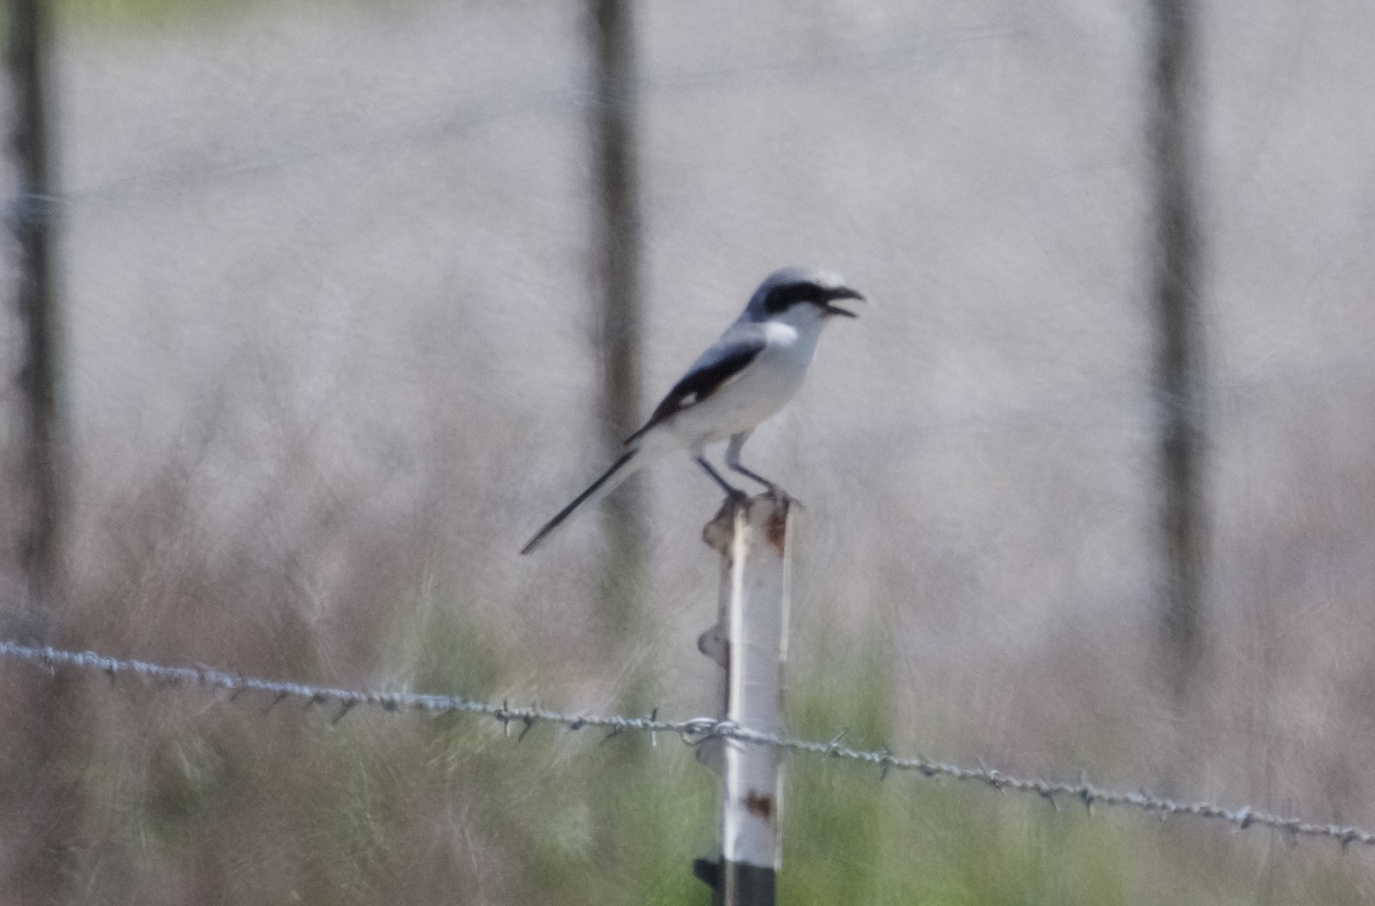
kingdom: Animalia
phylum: Chordata
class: Aves
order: Passeriformes
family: Laniidae
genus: Lanius
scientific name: Lanius ludovicianus
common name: Loggerhead shrike
